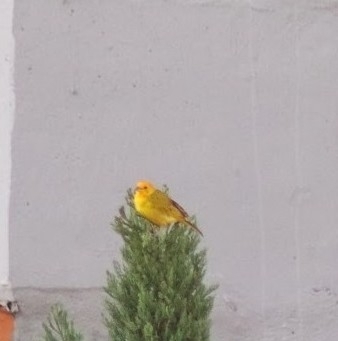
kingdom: Animalia
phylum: Chordata
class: Aves
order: Passeriformes
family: Thraupidae
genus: Sicalis
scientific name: Sicalis flaveola
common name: Saffron finch
